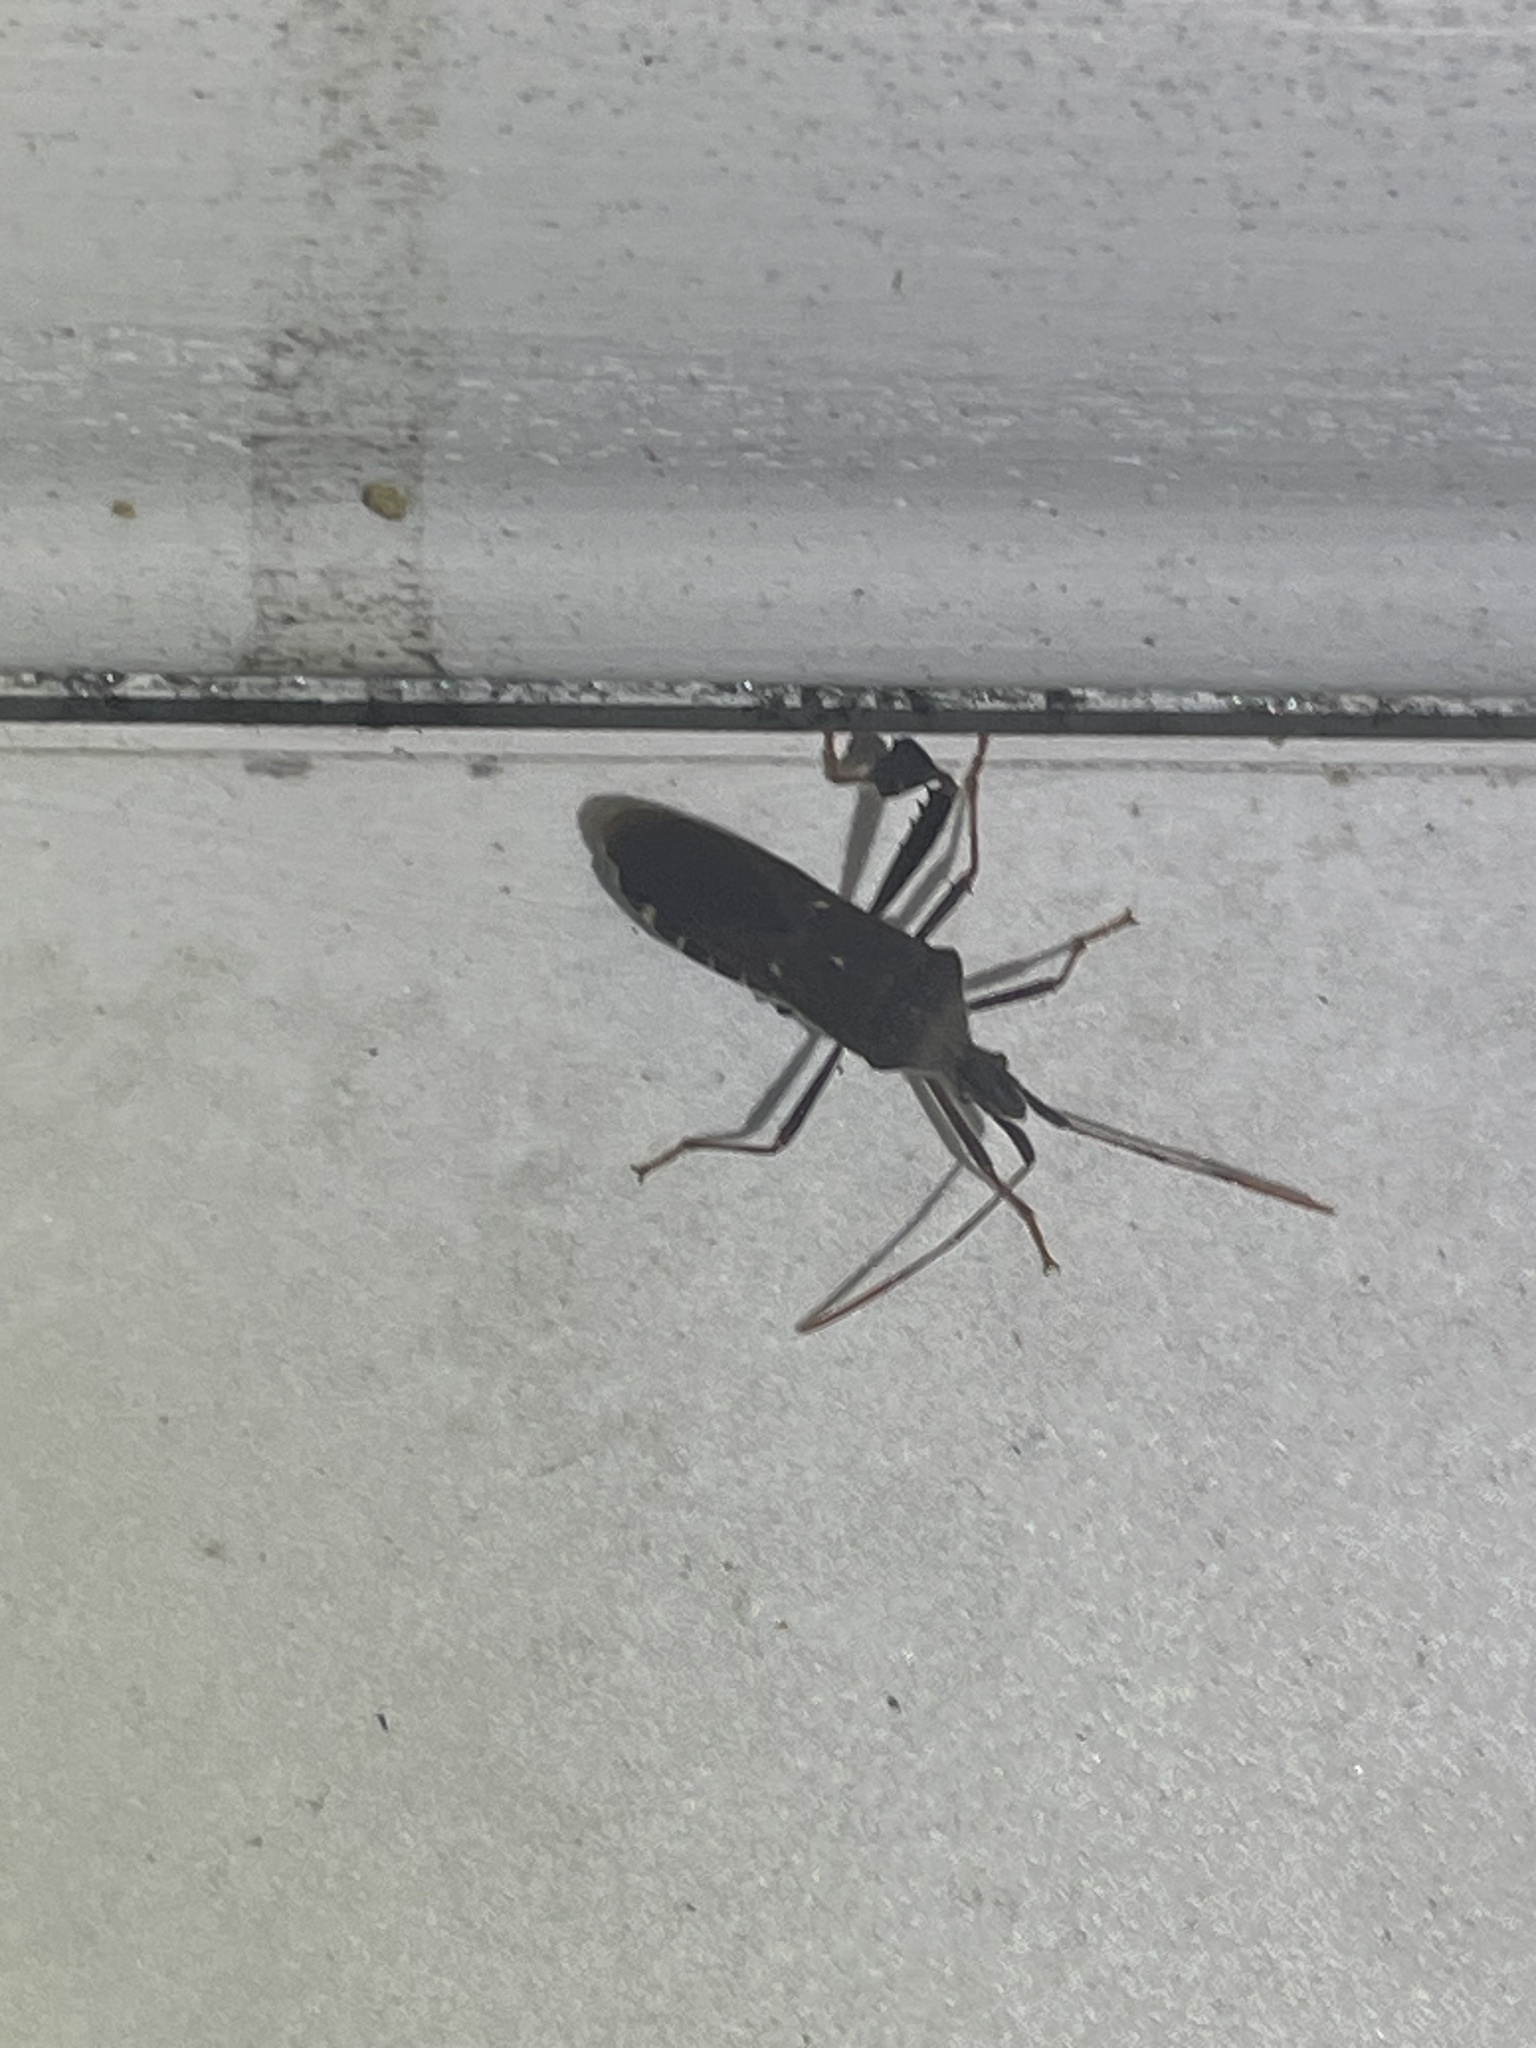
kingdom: Animalia
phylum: Arthropoda
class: Insecta
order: Hemiptera
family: Coreidae
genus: Leptoglossus
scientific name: Leptoglossus oppositus
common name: Northern leaf-footed bug
